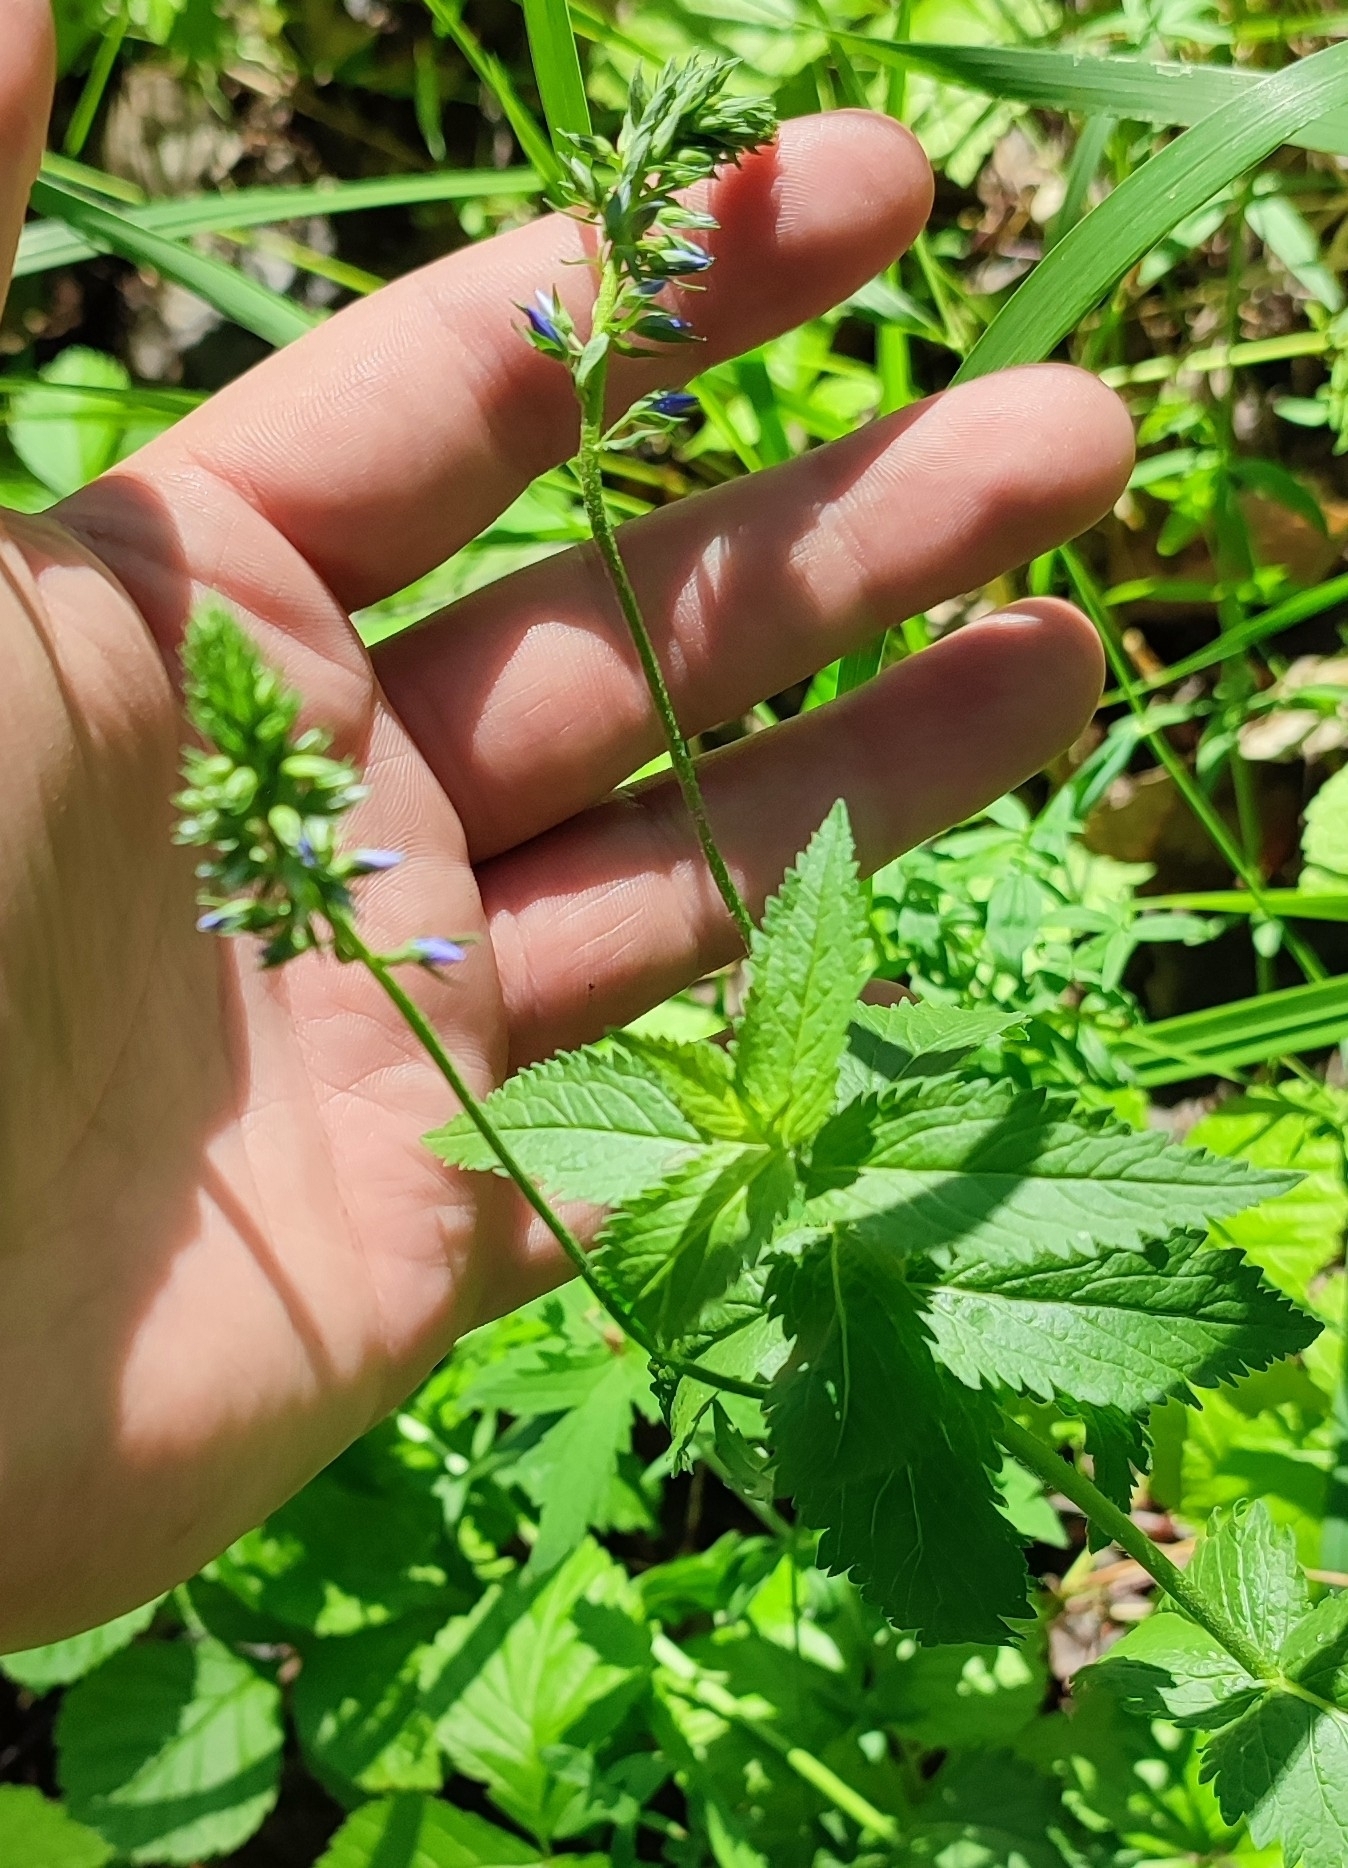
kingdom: Plantae
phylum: Tracheophyta
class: Magnoliopsida
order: Lamiales
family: Plantaginaceae
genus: Veronica
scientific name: Veronica teucrium
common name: Large speedwell
